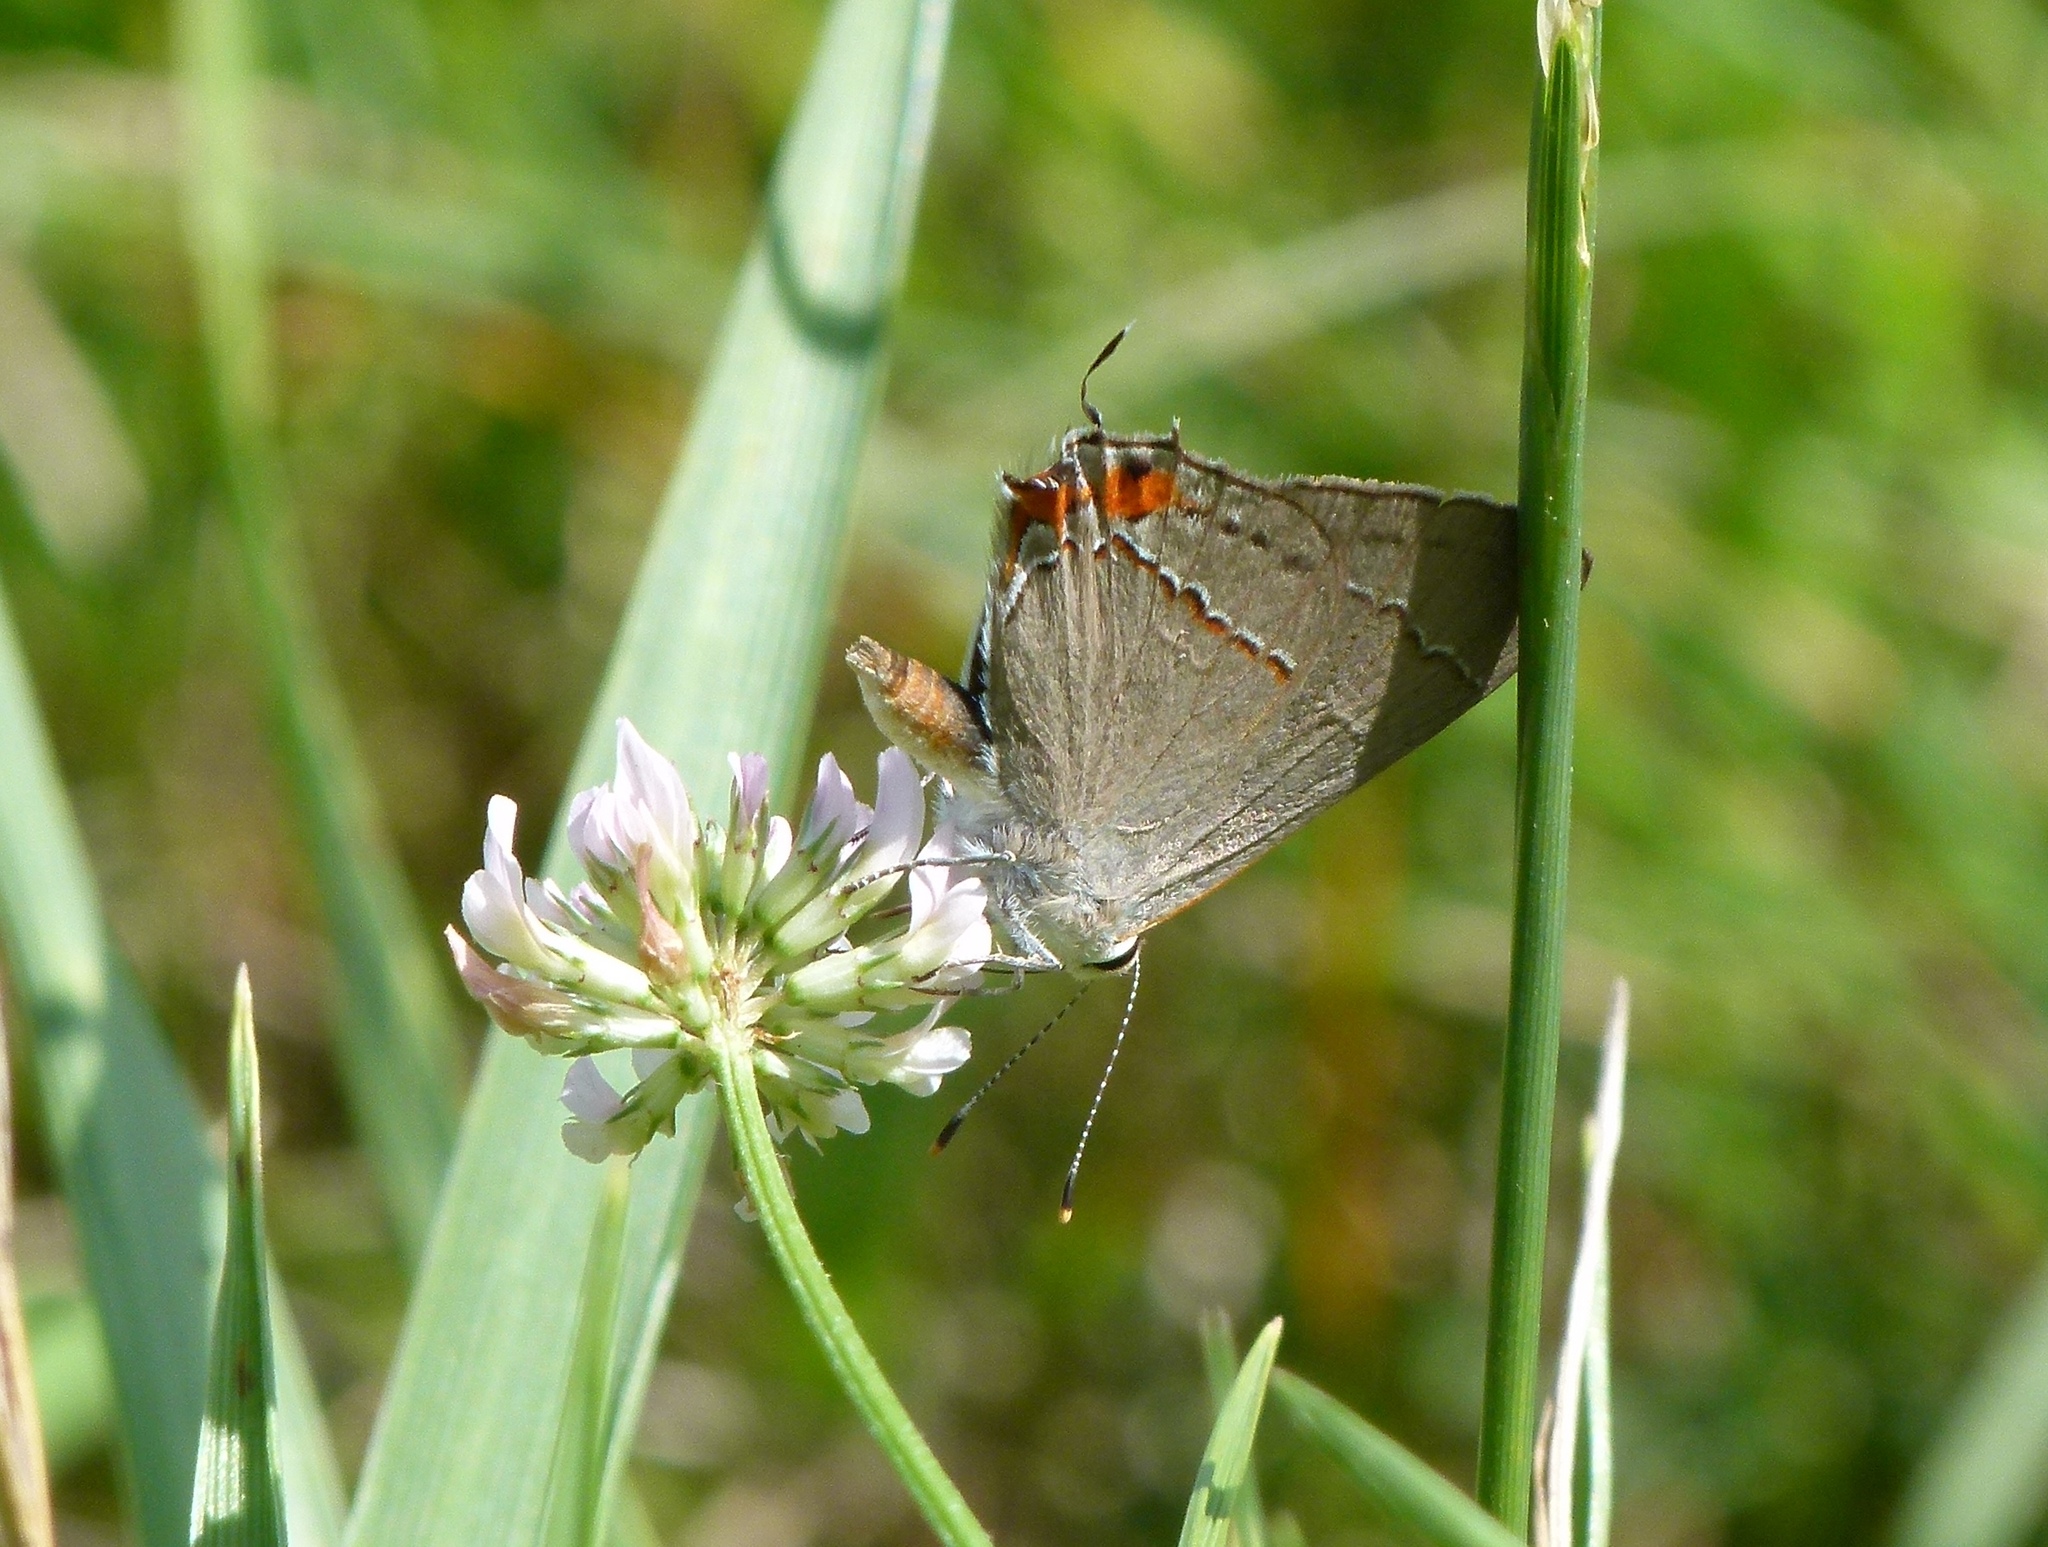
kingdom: Animalia
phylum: Arthropoda
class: Insecta
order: Lepidoptera
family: Lycaenidae
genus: Strymon
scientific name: Strymon melinus
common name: Gray hairstreak
